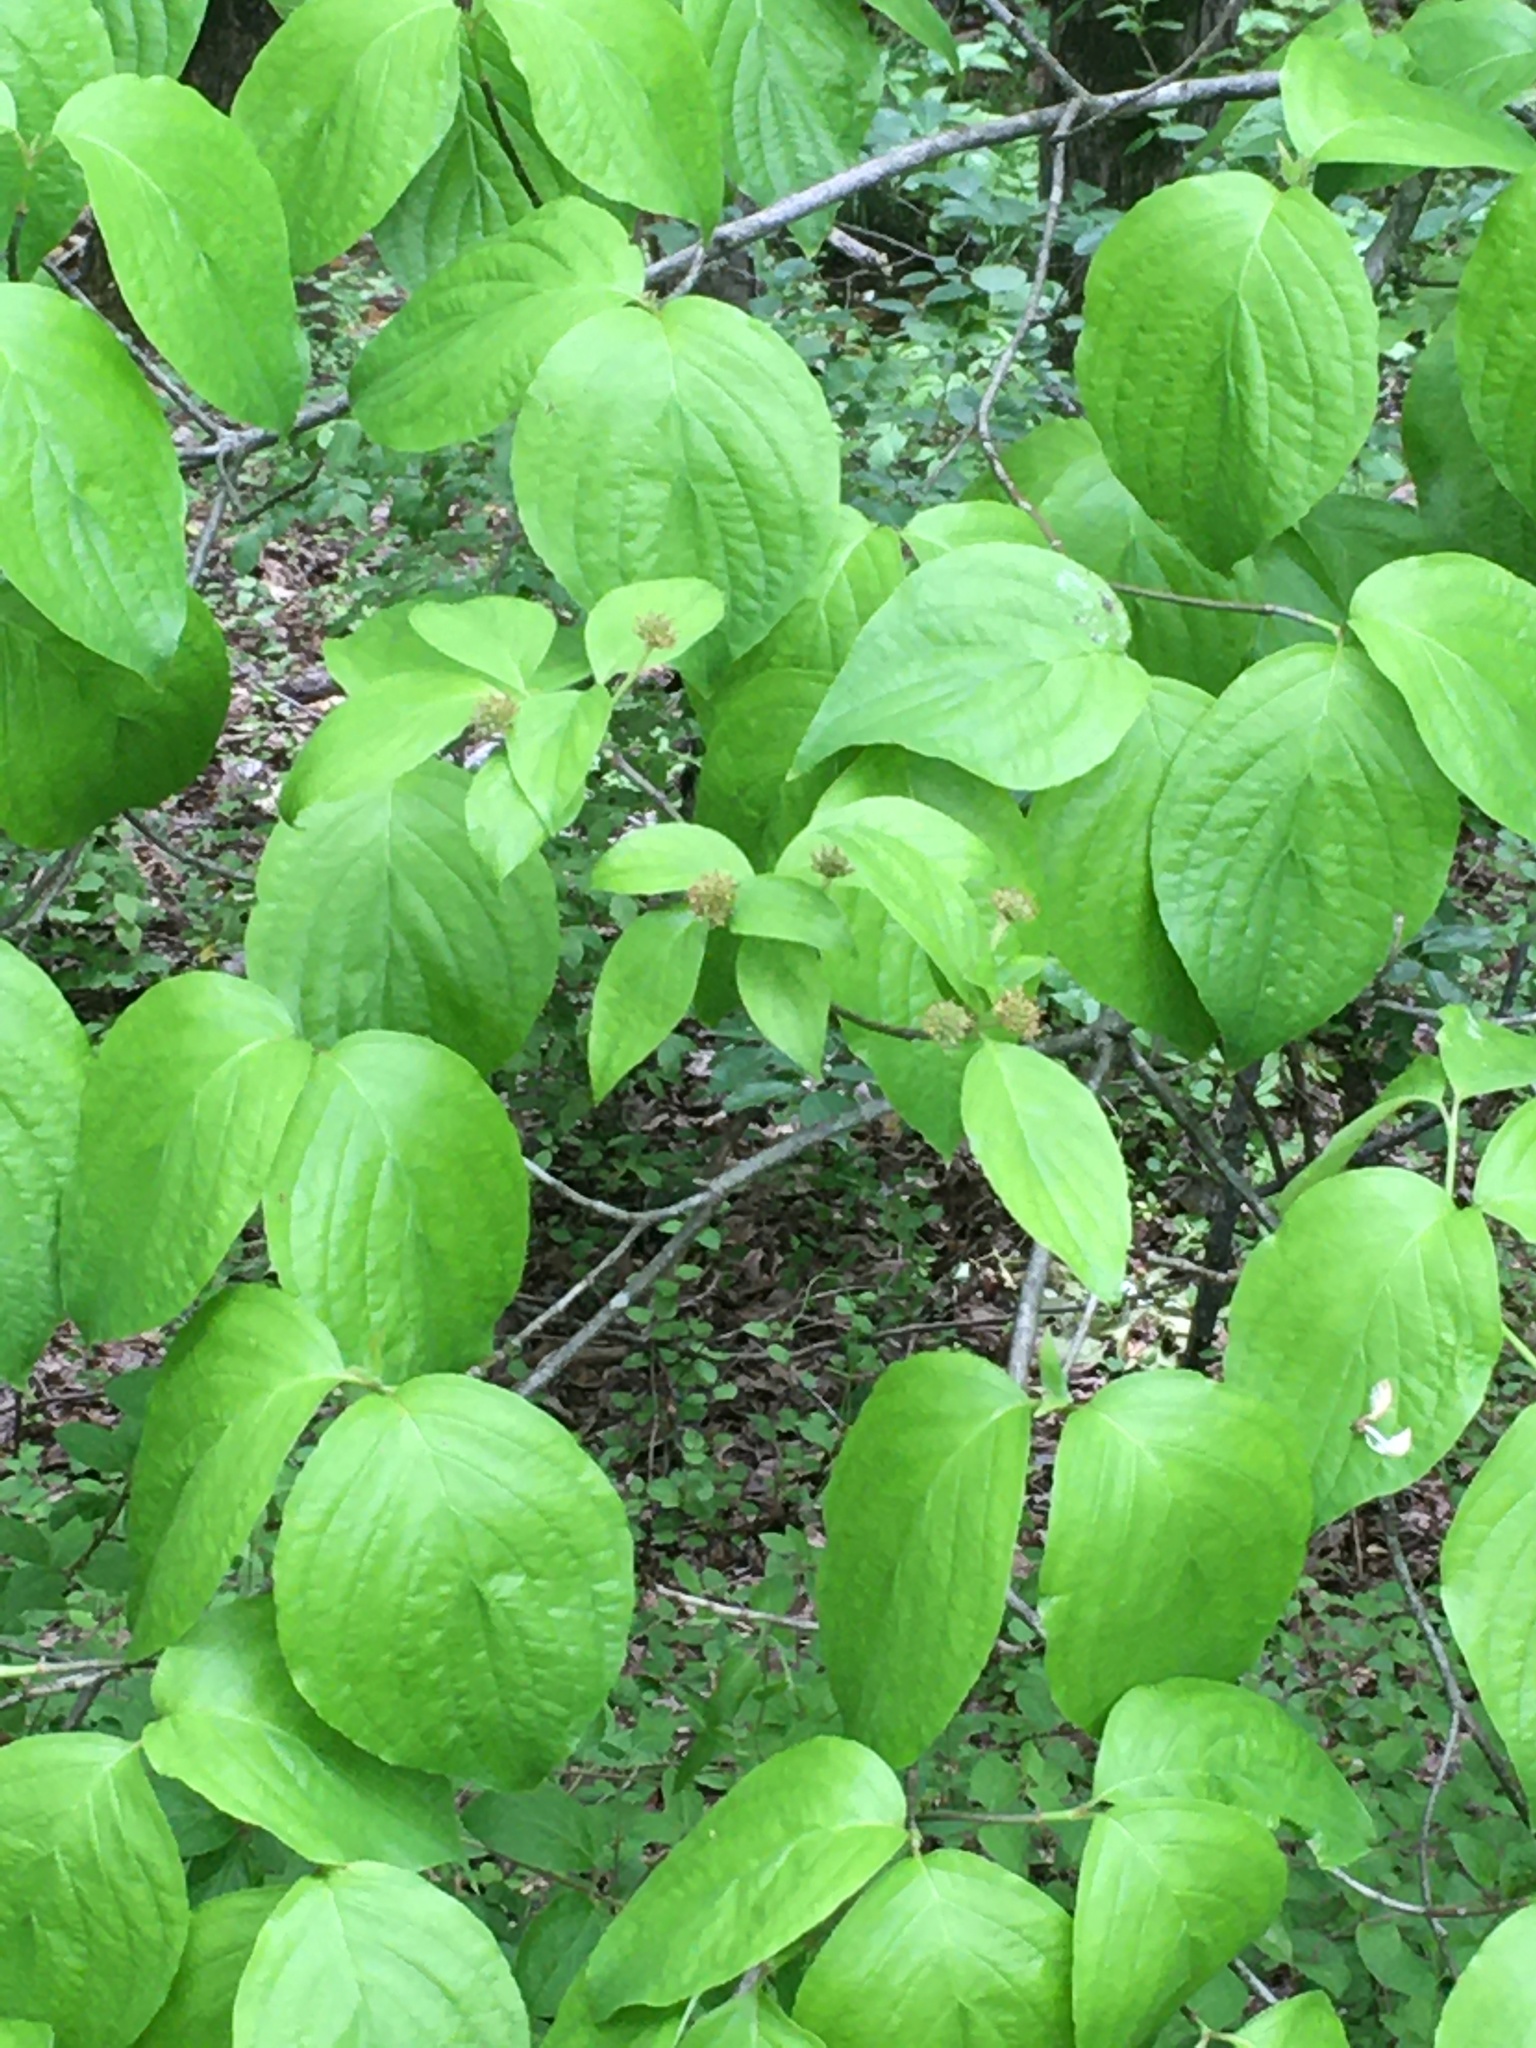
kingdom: Plantae
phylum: Tracheophyta
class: Magnoliopsida
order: Cornales
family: Cornaceae
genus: Cornus
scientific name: Cornus florida
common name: Flowering dogwood
